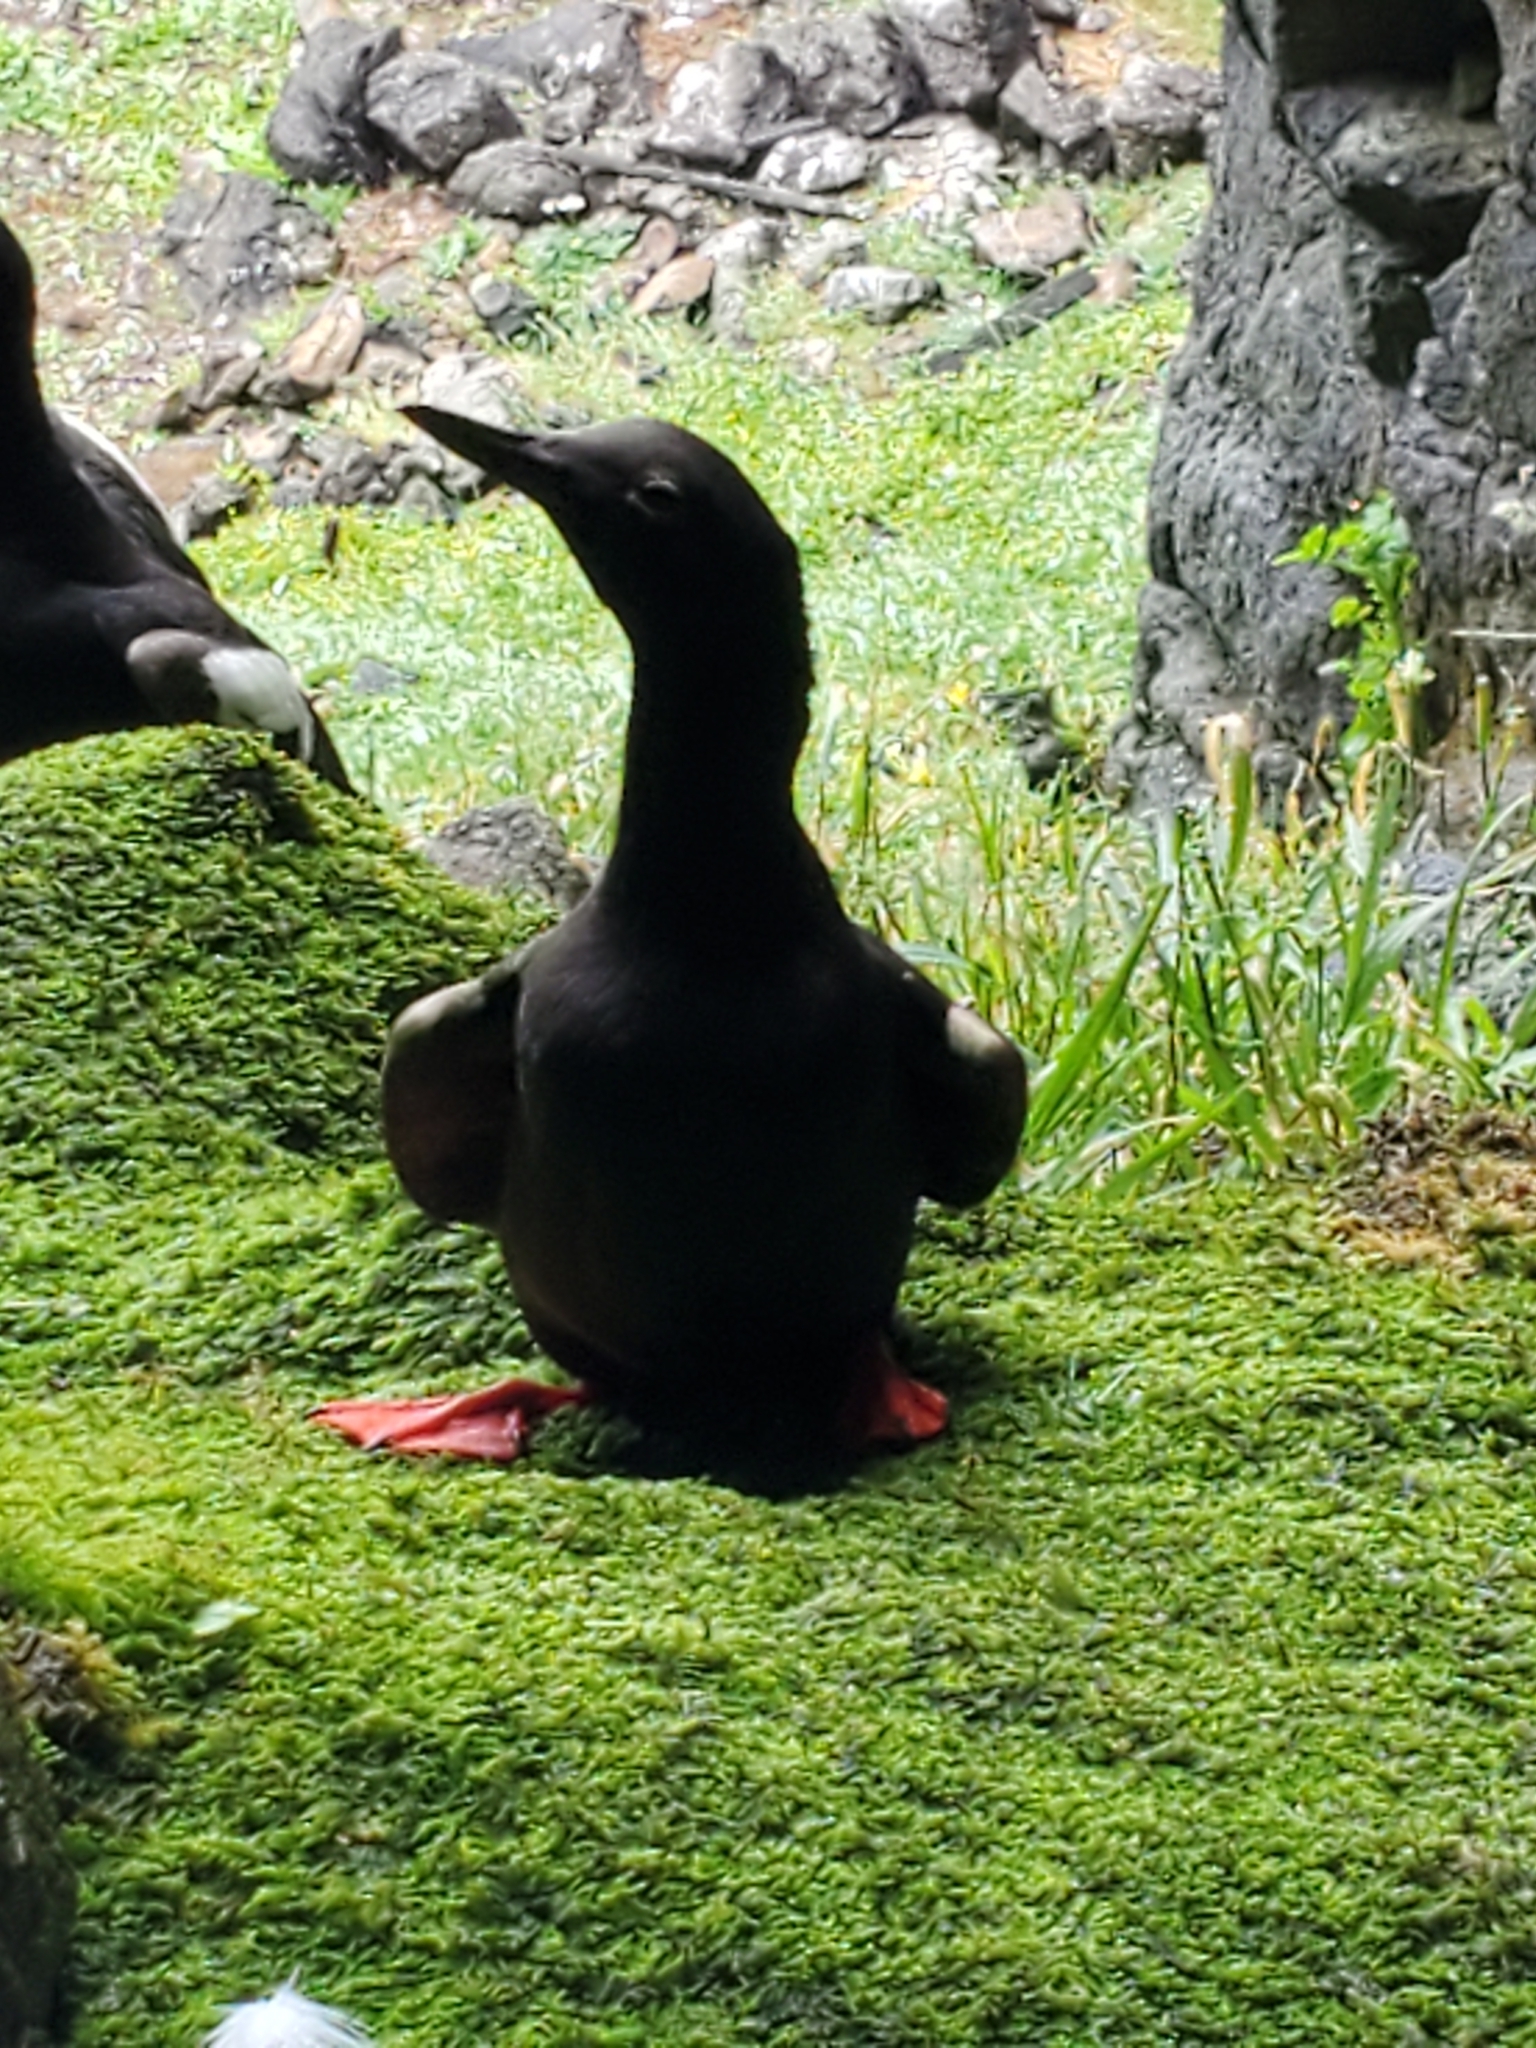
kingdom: Animalia
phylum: Chordata
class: Aves
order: Charadriiformes
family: Alcidae
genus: Cepphus
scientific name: Cepphus columba
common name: Pigeon guillemot
